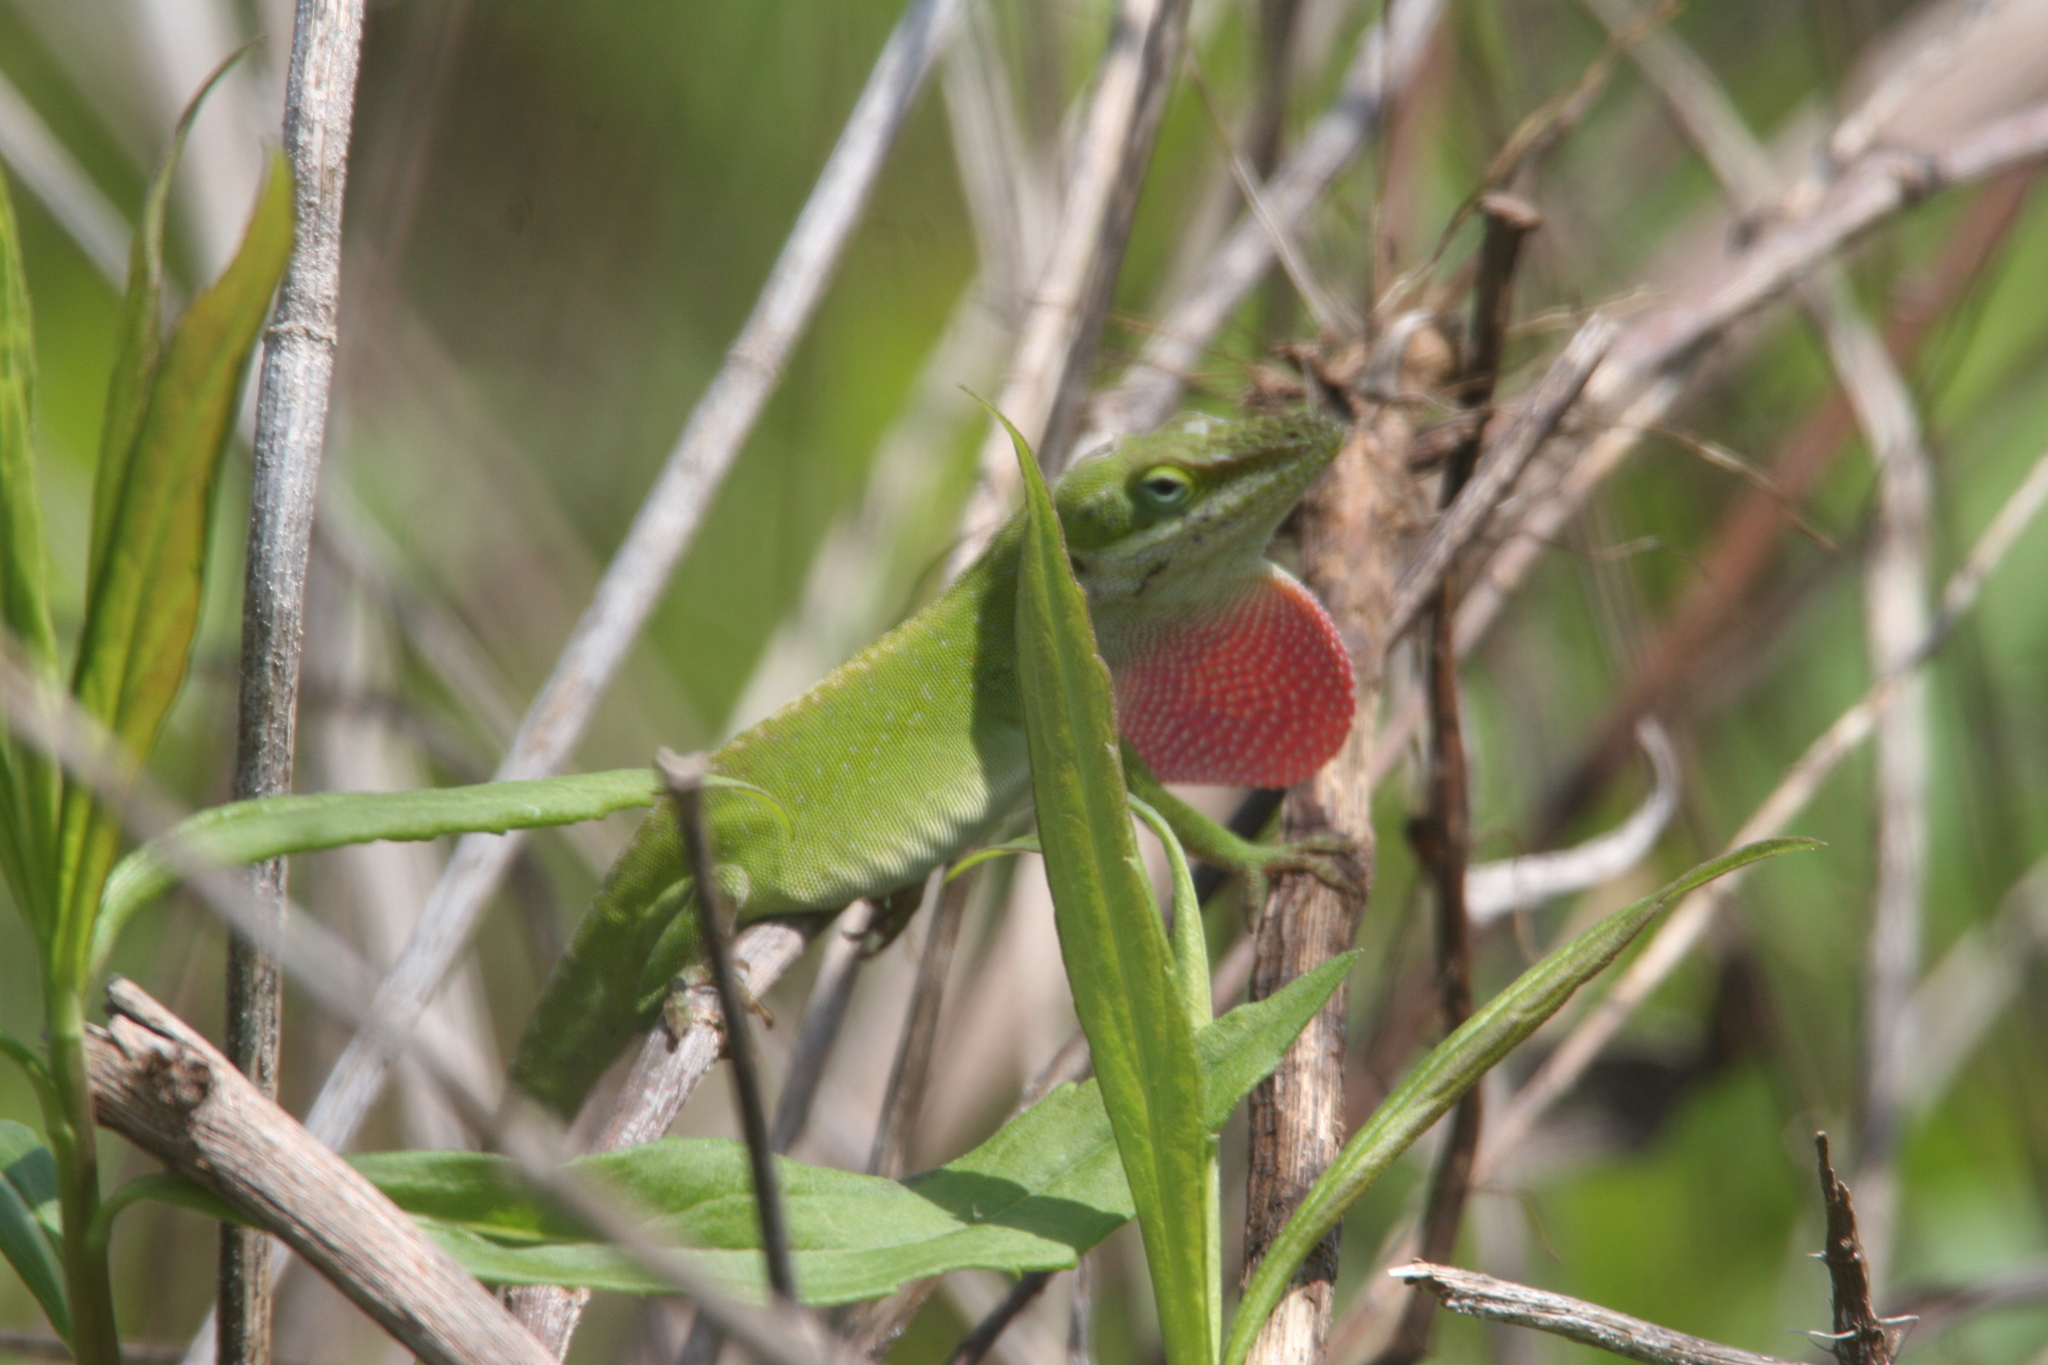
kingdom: Animalia
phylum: Chordata
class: Squamata
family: Dactyloidae
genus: Anolis
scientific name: Anolis carolinensis
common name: Green anole
